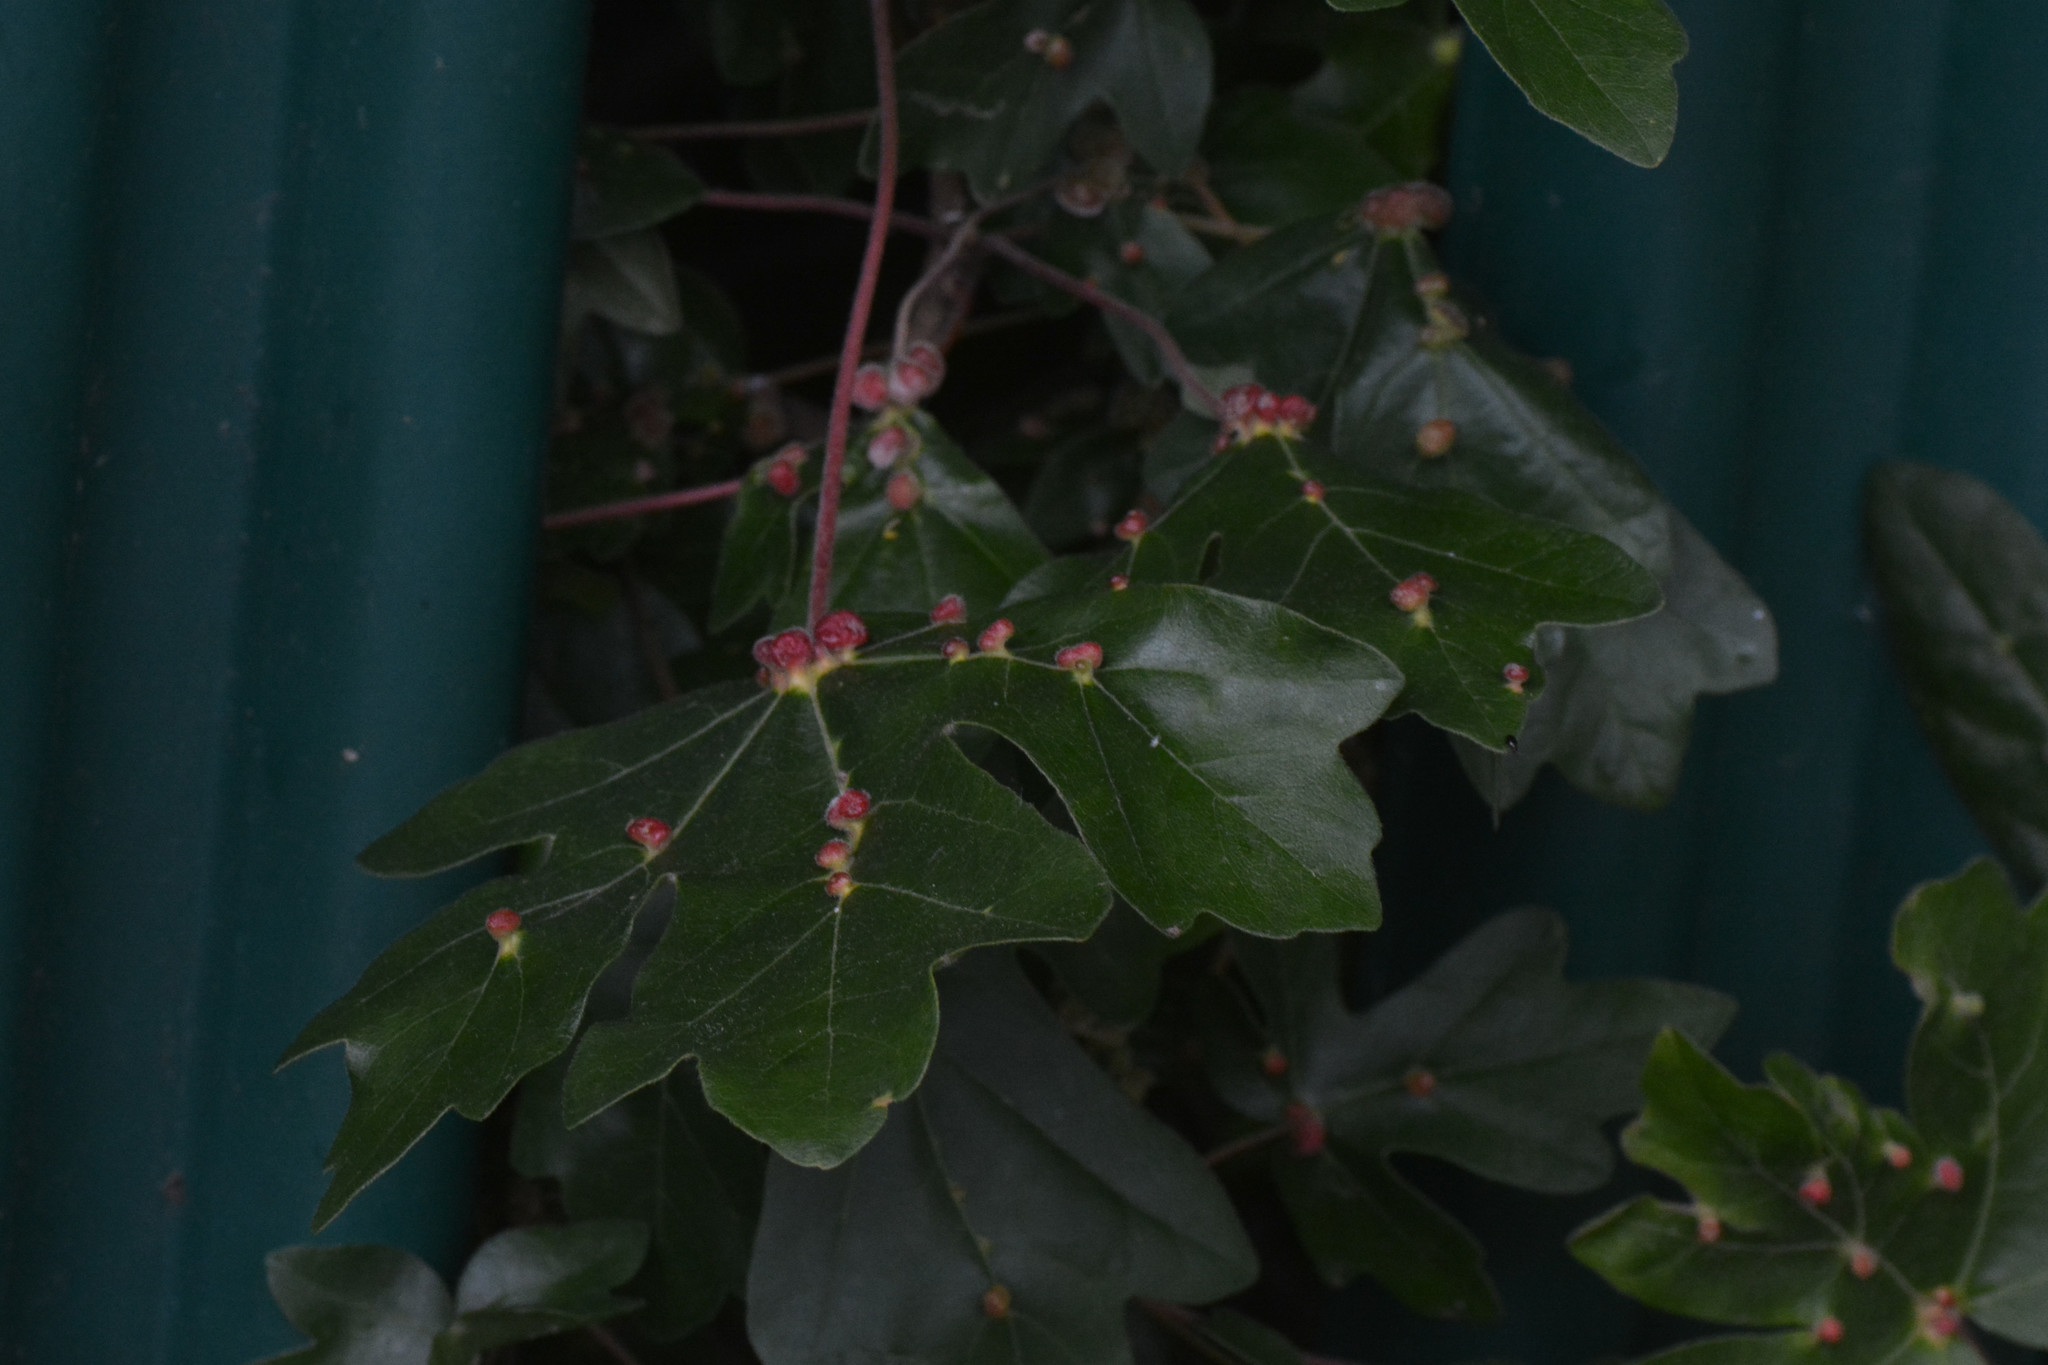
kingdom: Animalia
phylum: Arthropoda
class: Arachnida
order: Trombidiformes
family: Eriophyidae
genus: Aceria
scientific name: Aceria macrochelus
